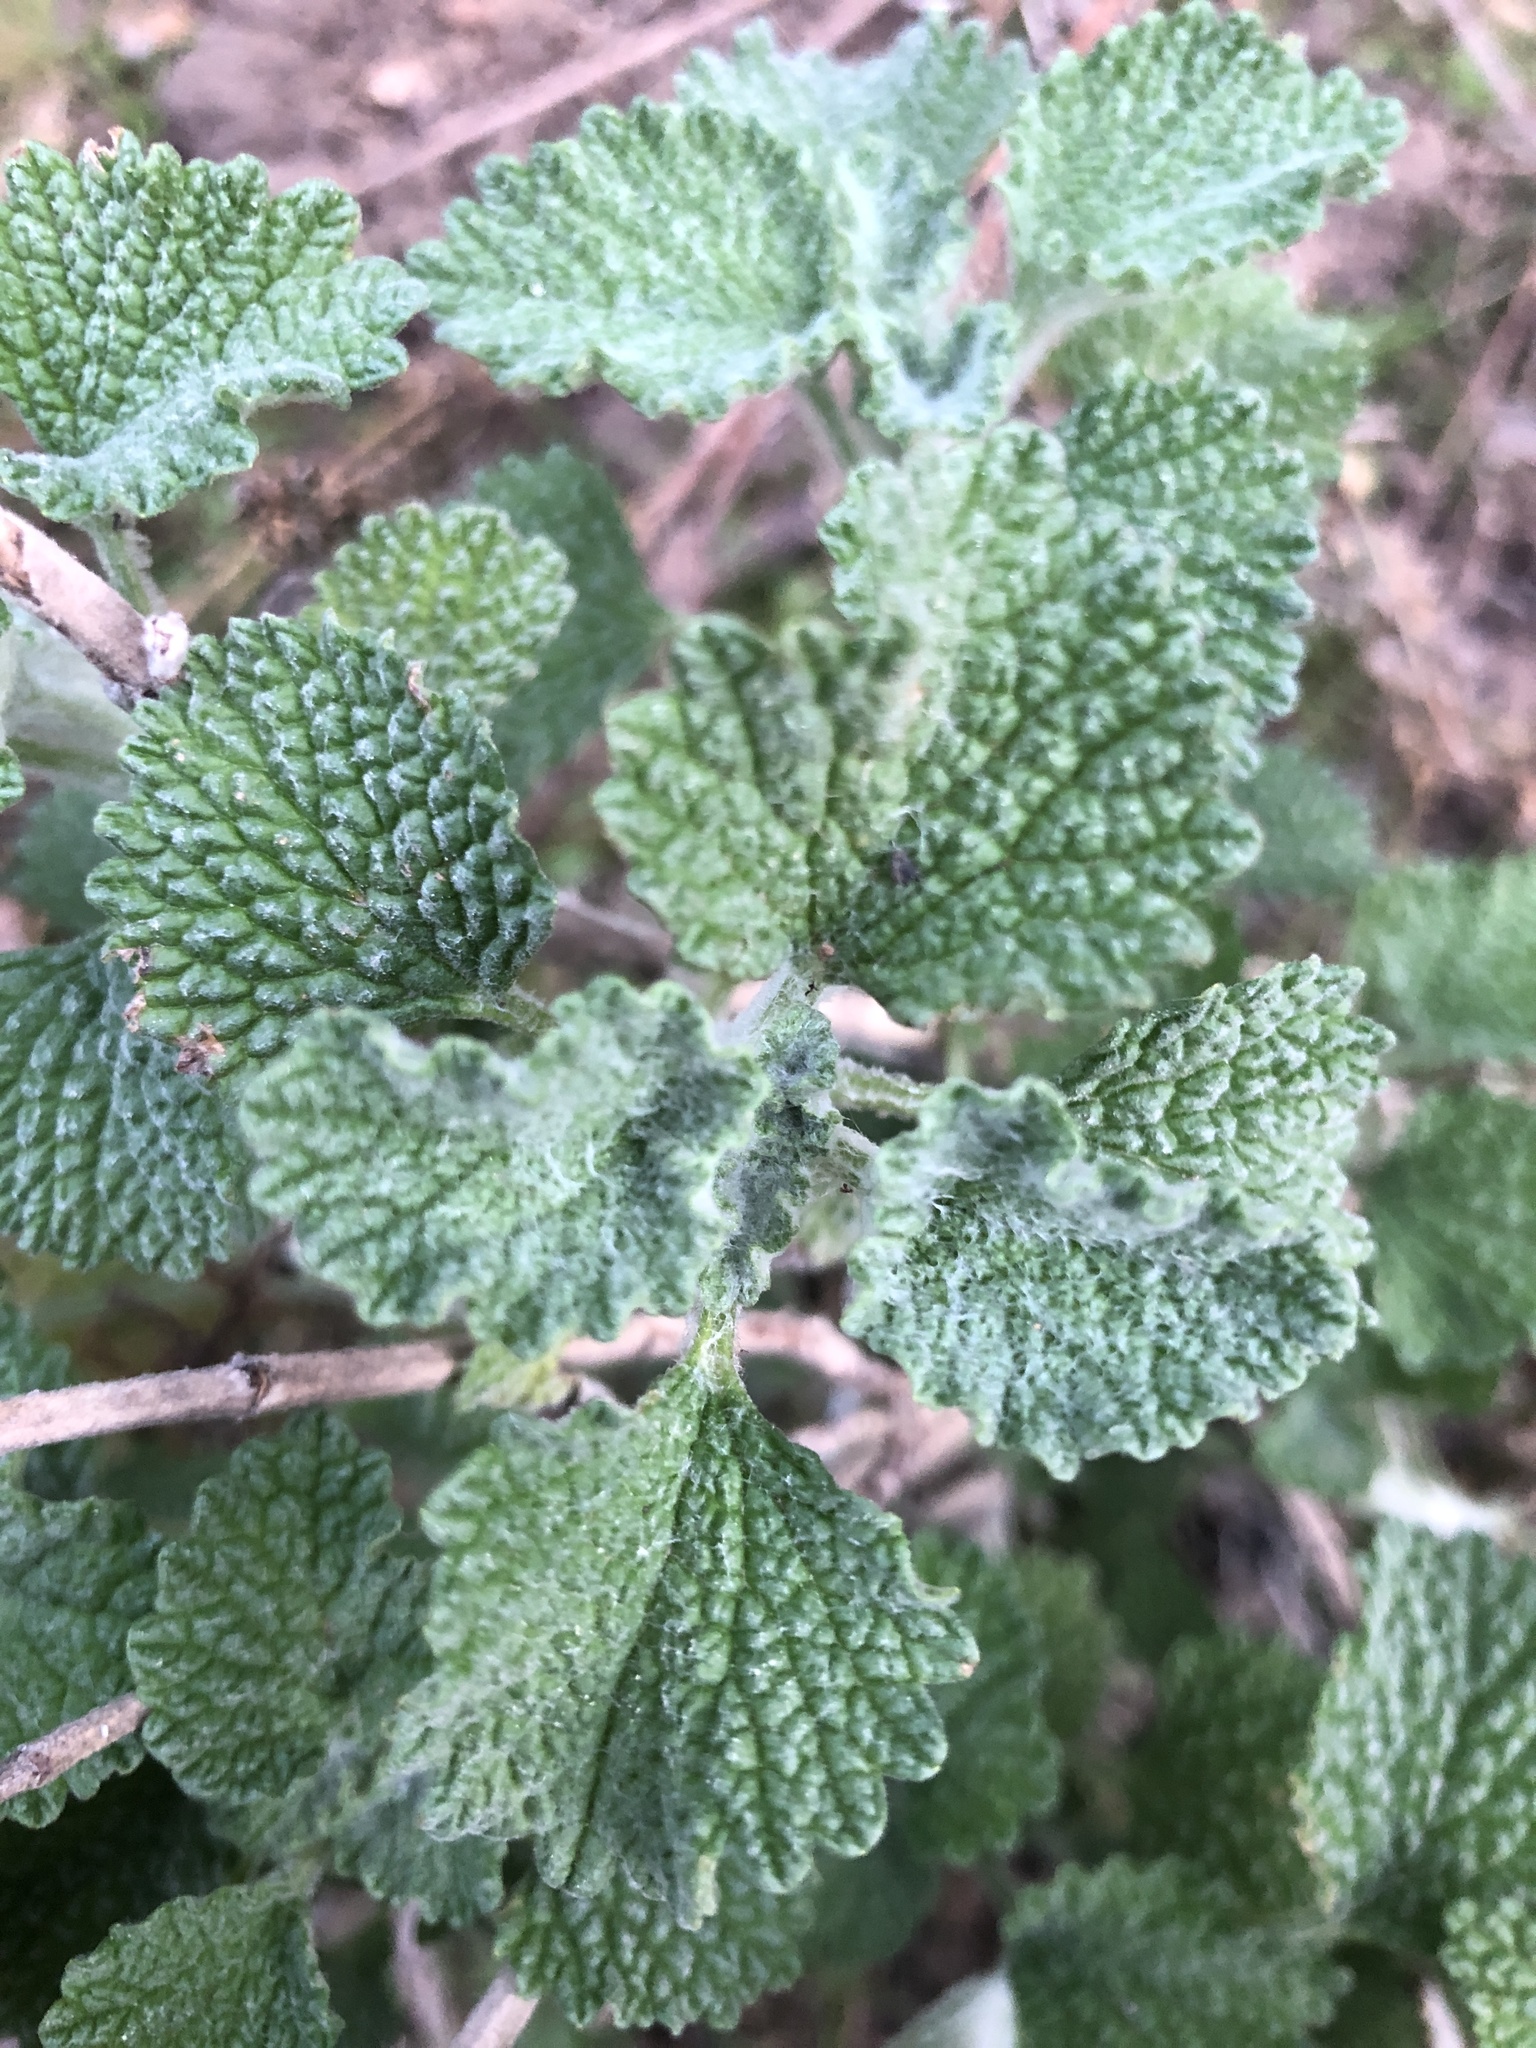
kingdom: Plantae
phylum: Tracheophyta
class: Magnoliopsida
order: Lamiales
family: Lamiaceae
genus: Marrubium
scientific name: Marrubium vulgare
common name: Horehound
